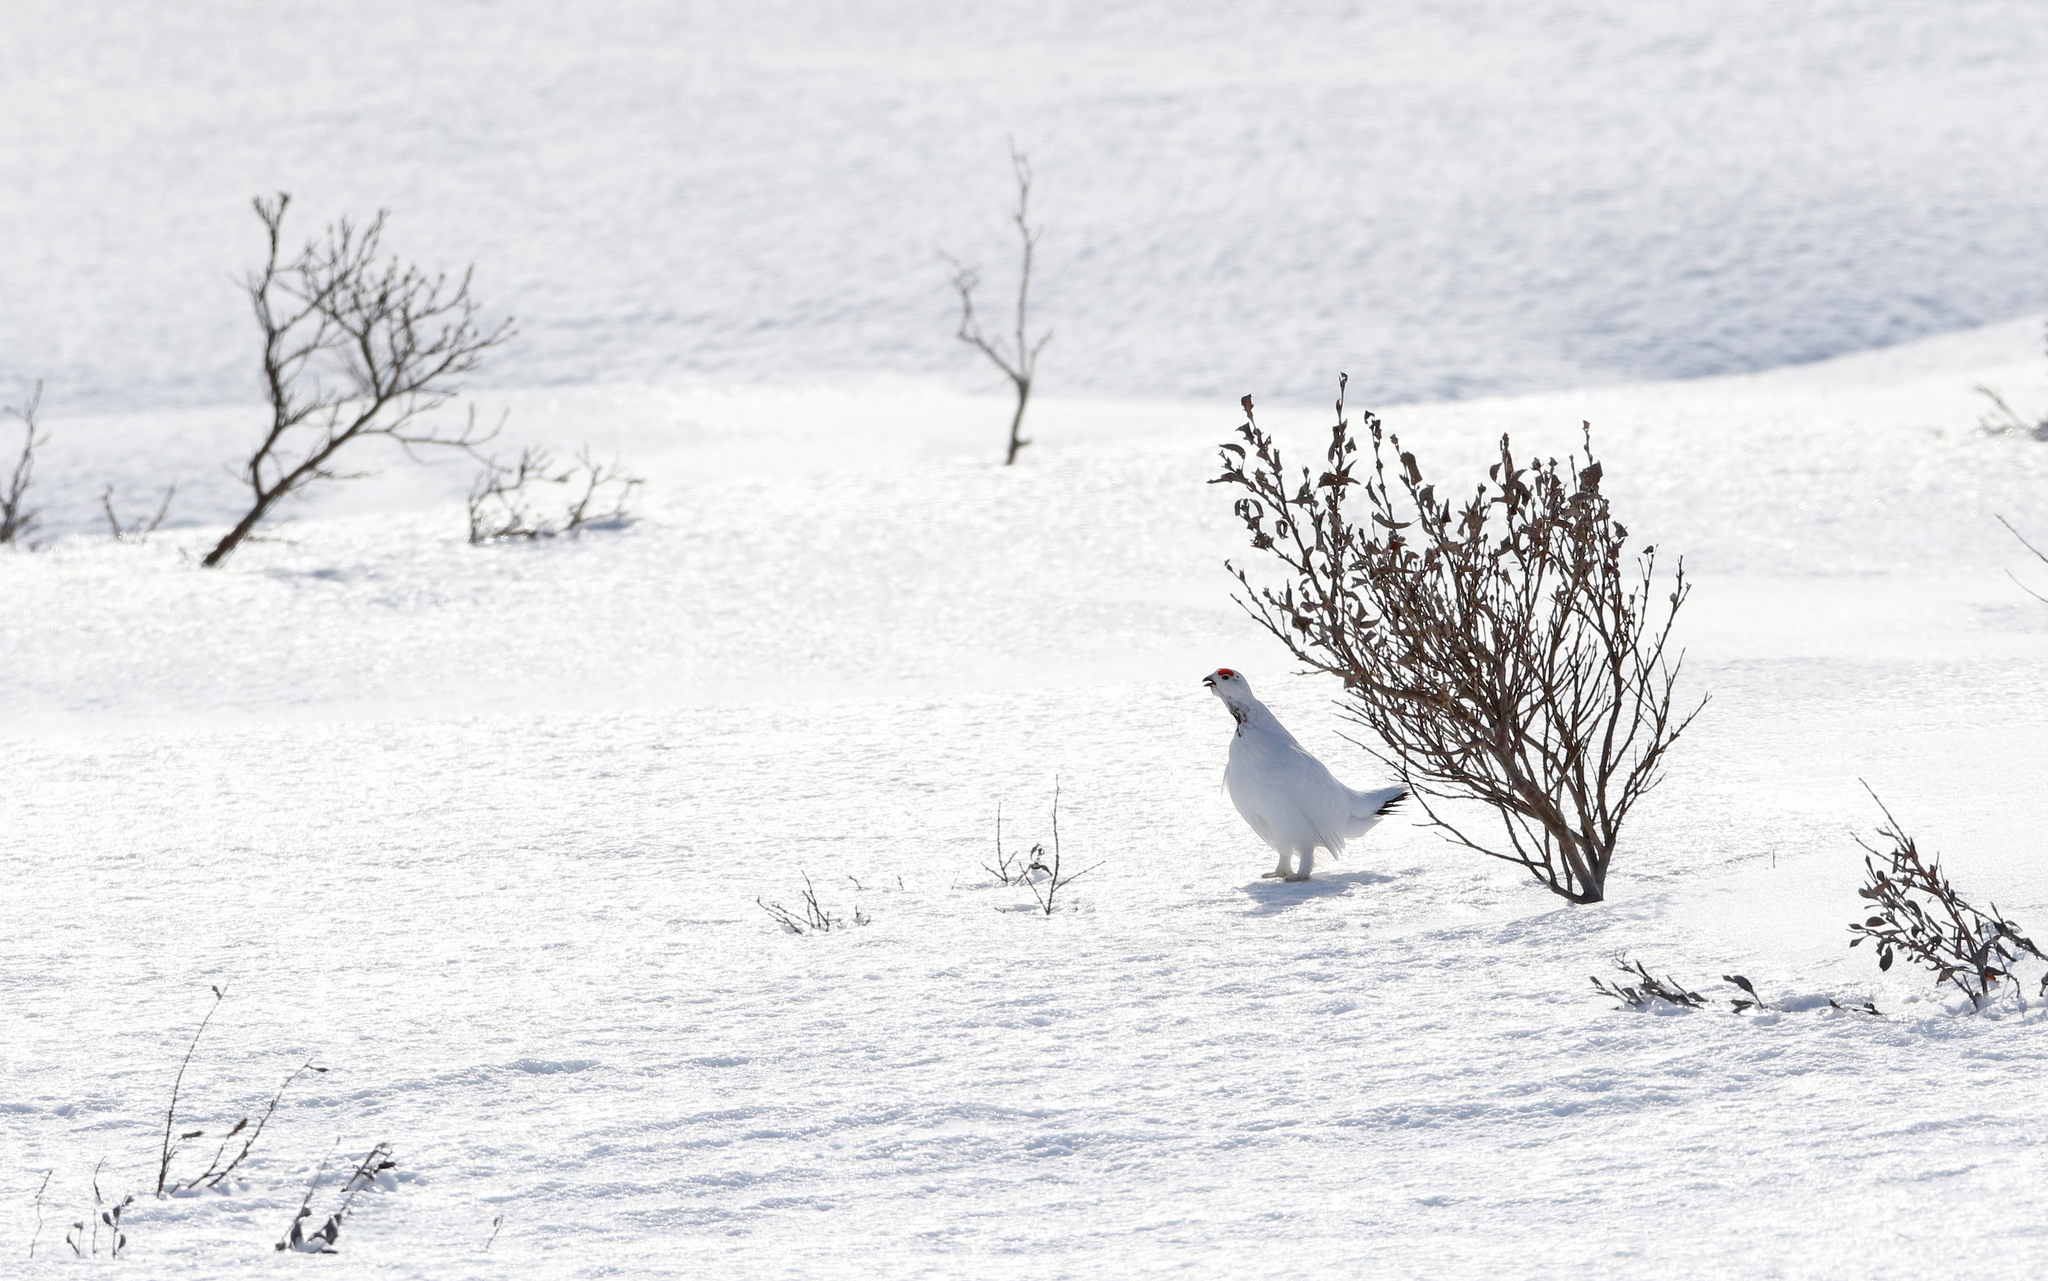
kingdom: Animalia
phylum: Chordata
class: Aves
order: Galliformes
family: Phasianidae
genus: Lagopus
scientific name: Lagopus lagopus
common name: Willow ptarmigan
